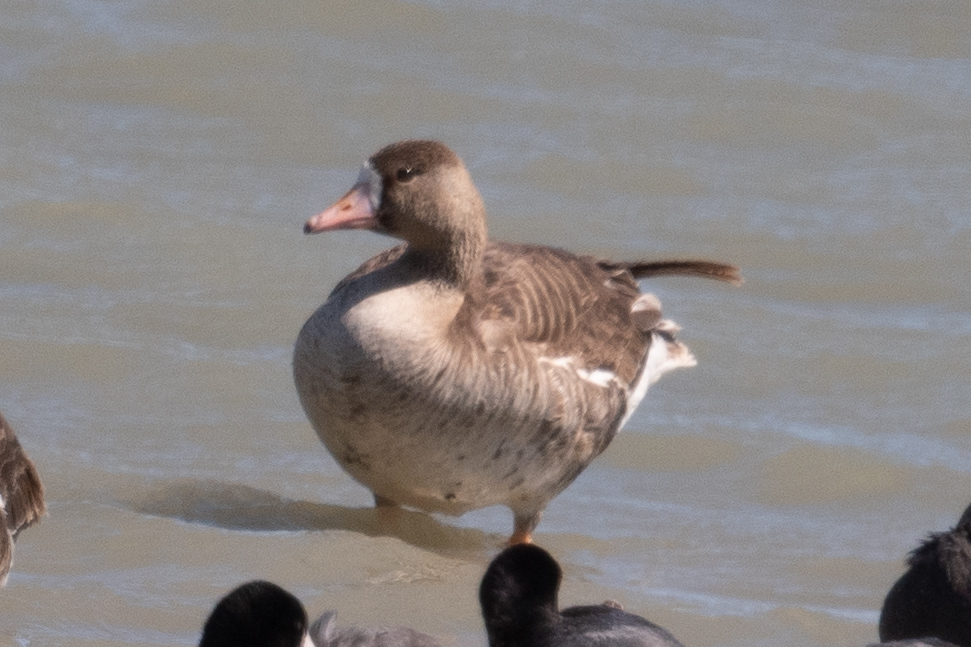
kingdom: Animalia
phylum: Chordata
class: Aves
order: Anseriformes
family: Anatidae
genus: Anser
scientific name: Anser albifrons
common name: Greater white-fronted goose
